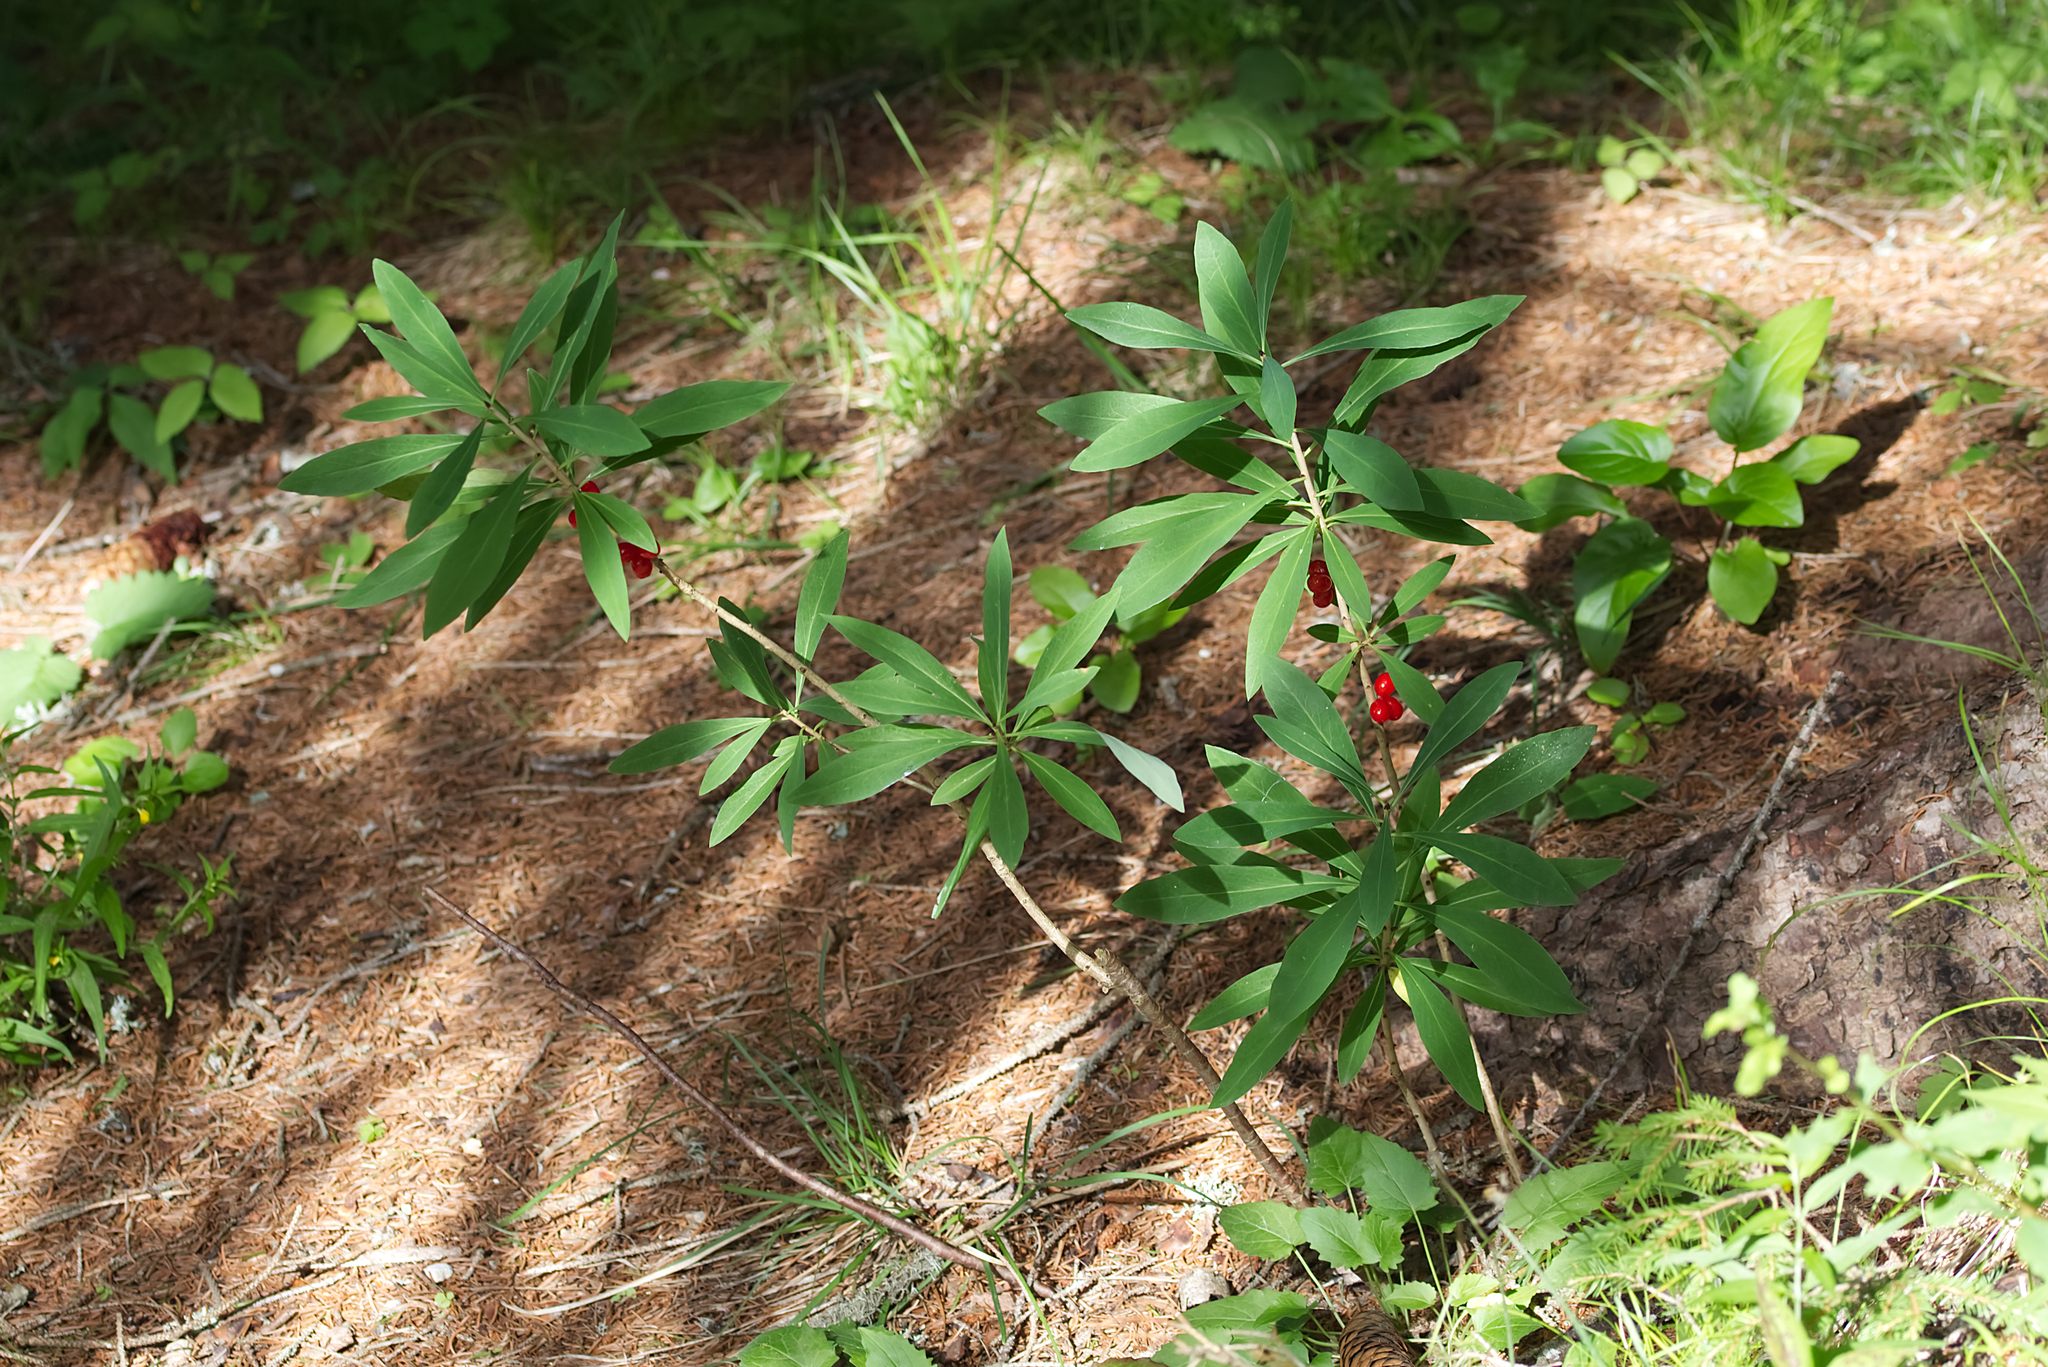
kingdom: Plantae
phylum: Tracheophyta
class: Magnoliopsida
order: Malvales
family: Thymelaeaceae
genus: Daphne
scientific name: Daphne mezereum
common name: Mezereon
